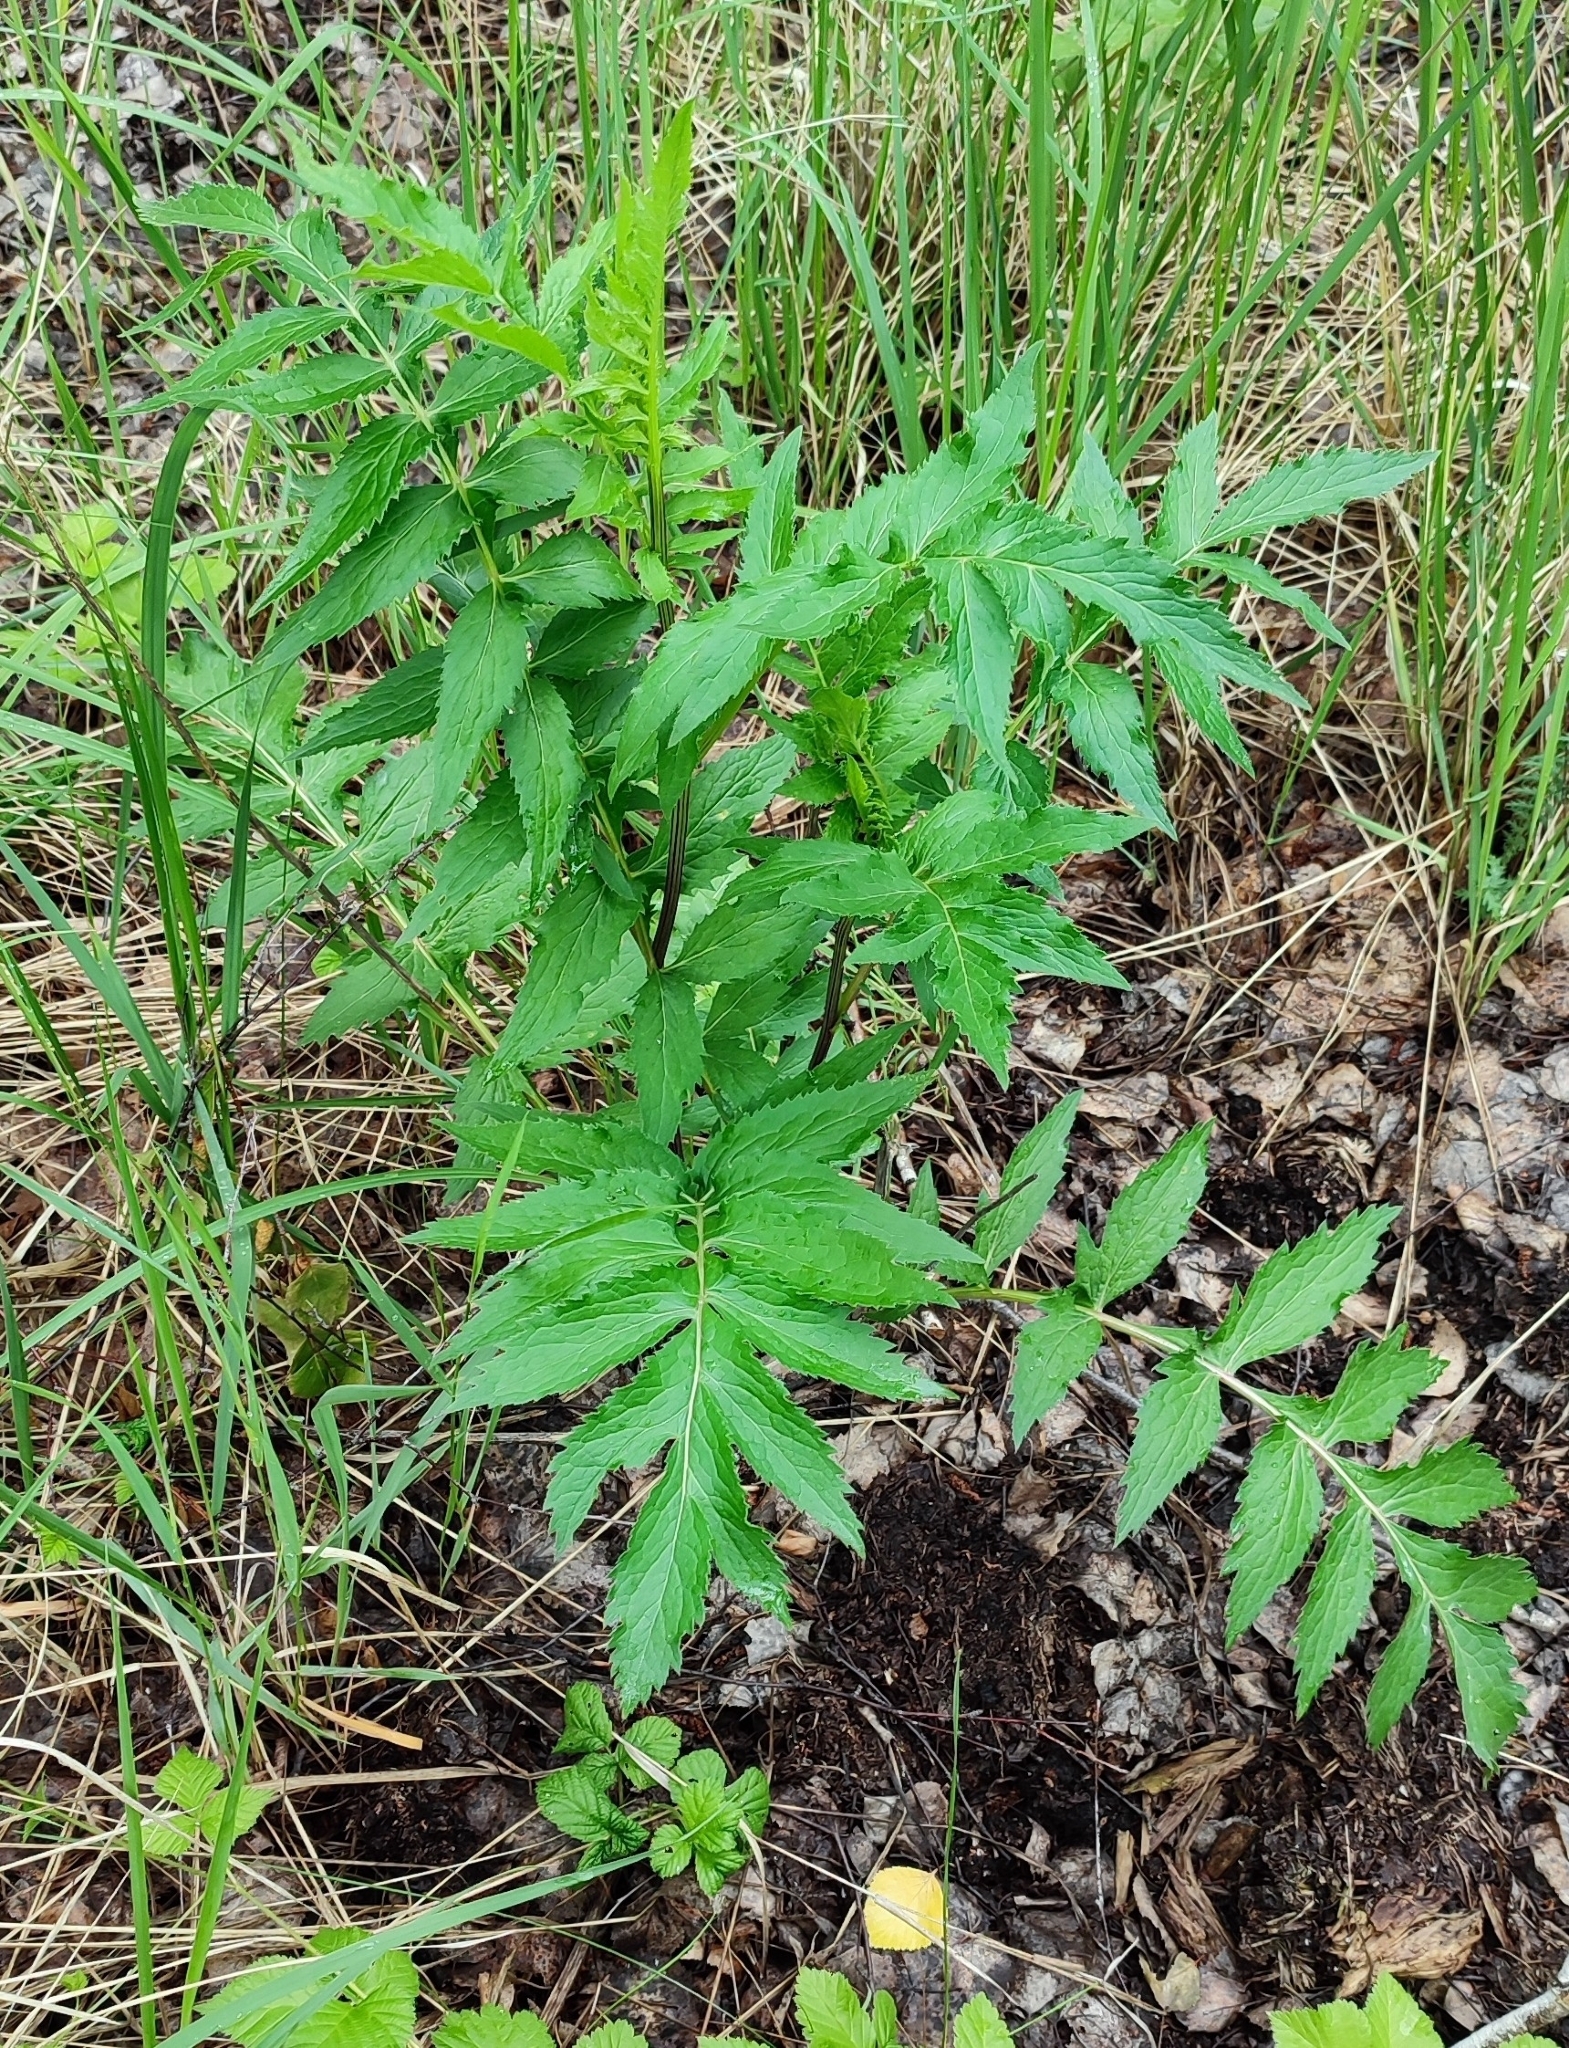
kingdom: Plantae
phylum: Tracheophyta
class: Magnoliopsida
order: Asterales
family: Asteraceae
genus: Serratula
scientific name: Serratula coronata
